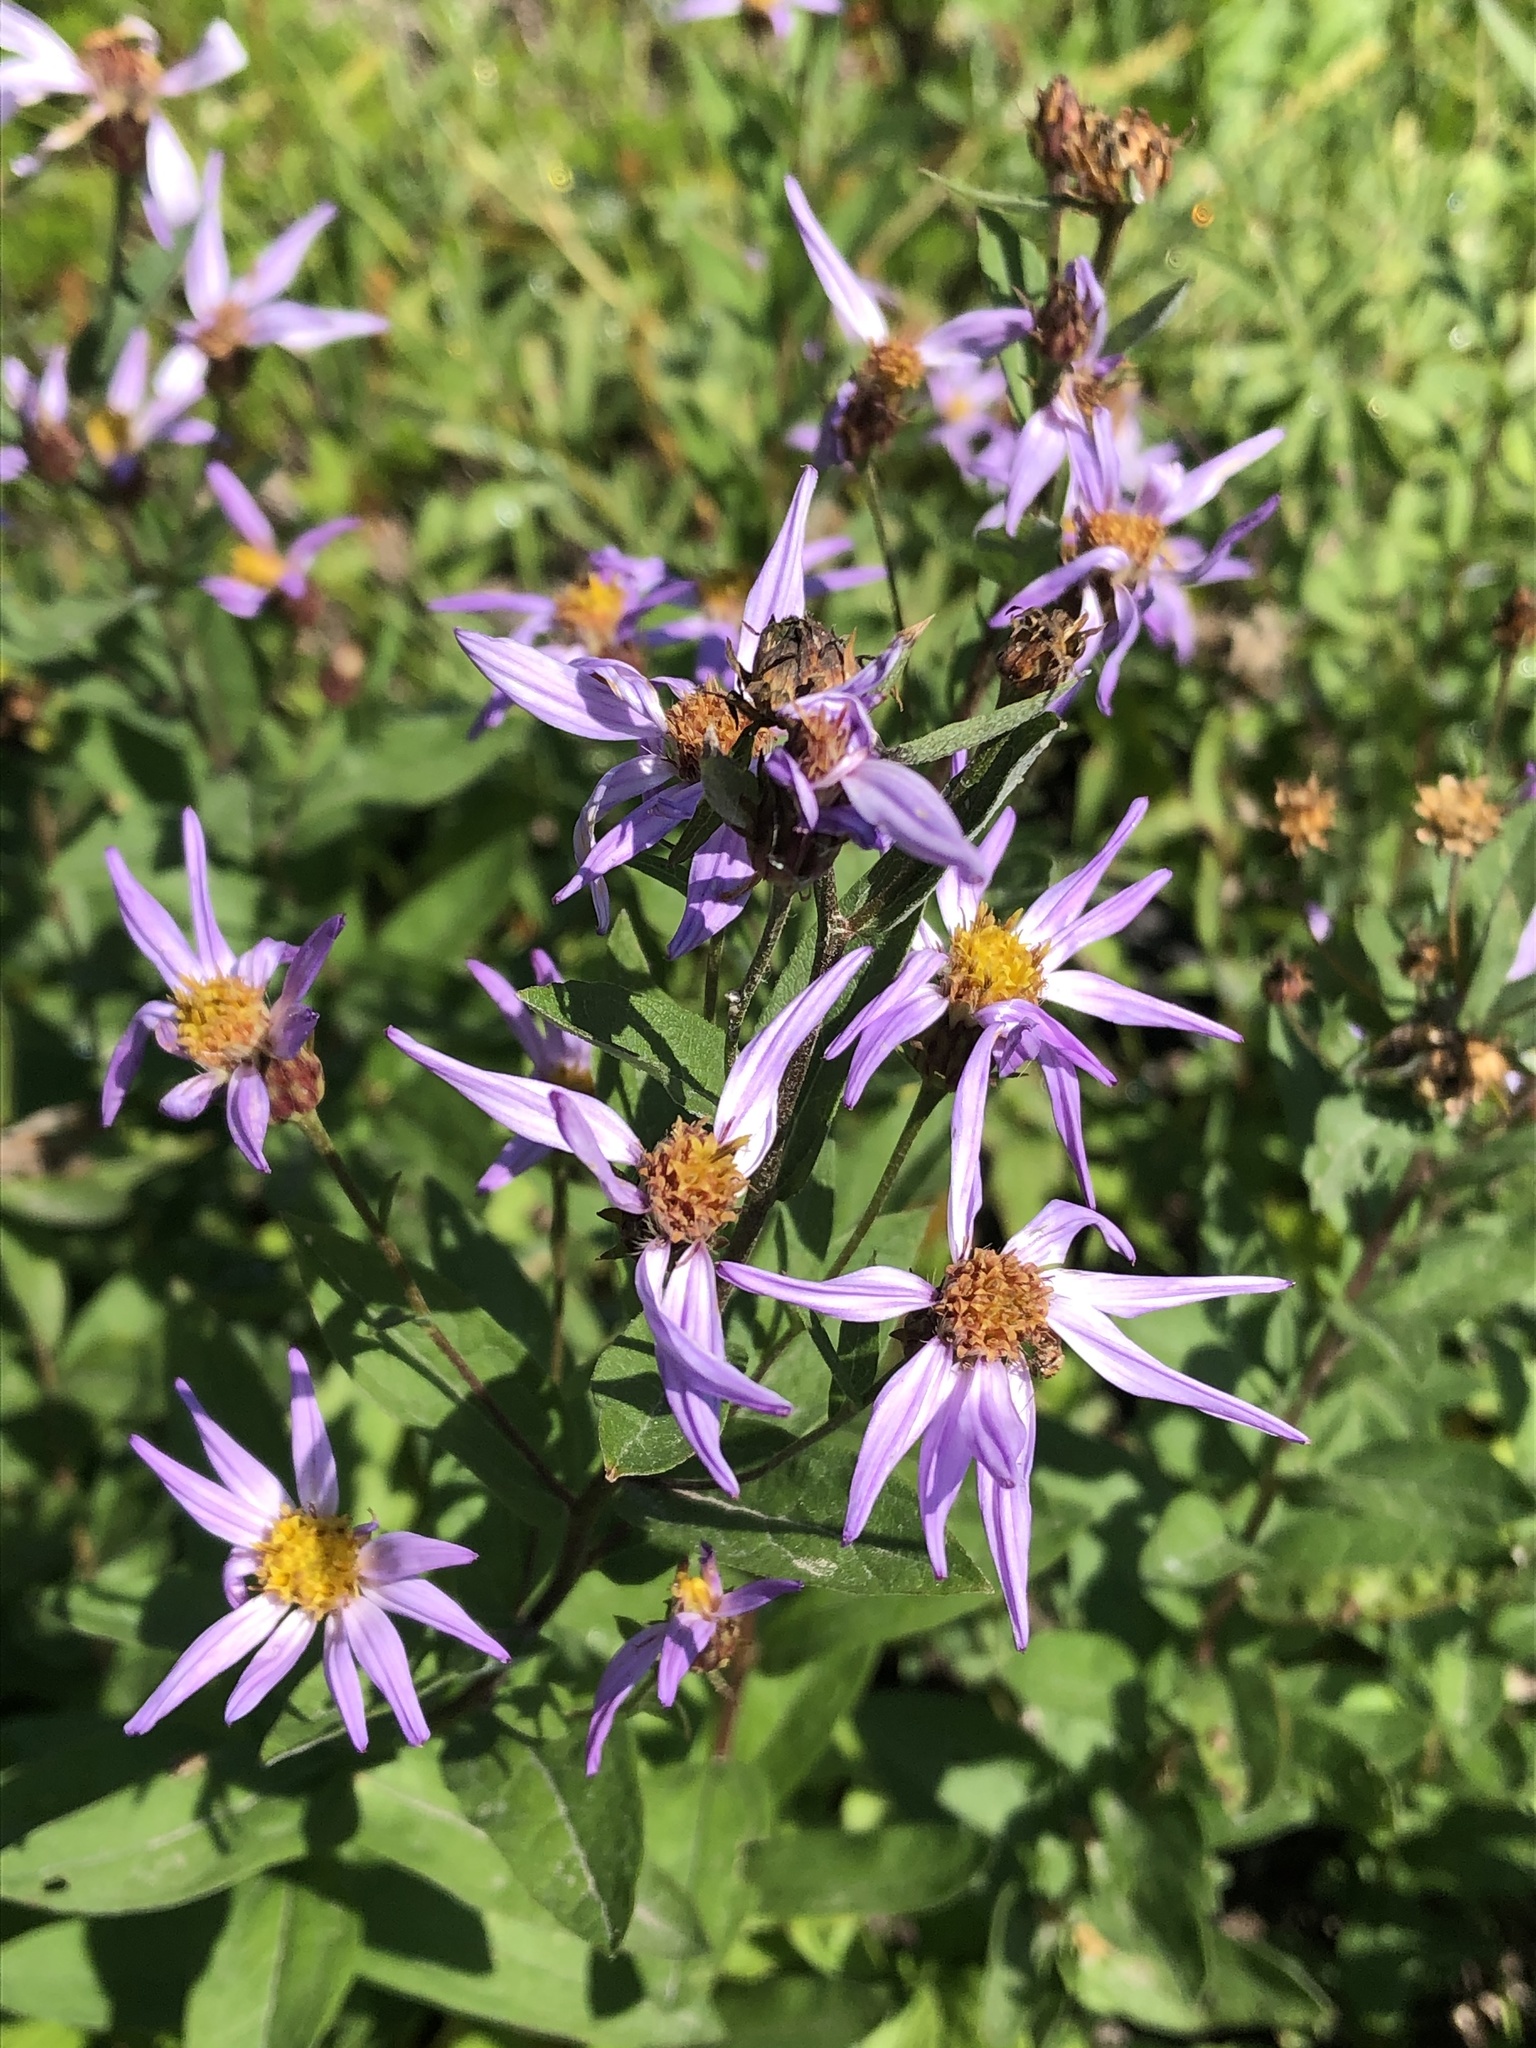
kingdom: Plantae
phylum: Tracheophyta
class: Magnoliopsida
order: Asterales
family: Asteraceae
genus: Eucephalus
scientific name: Eucephalus ledophyllus
